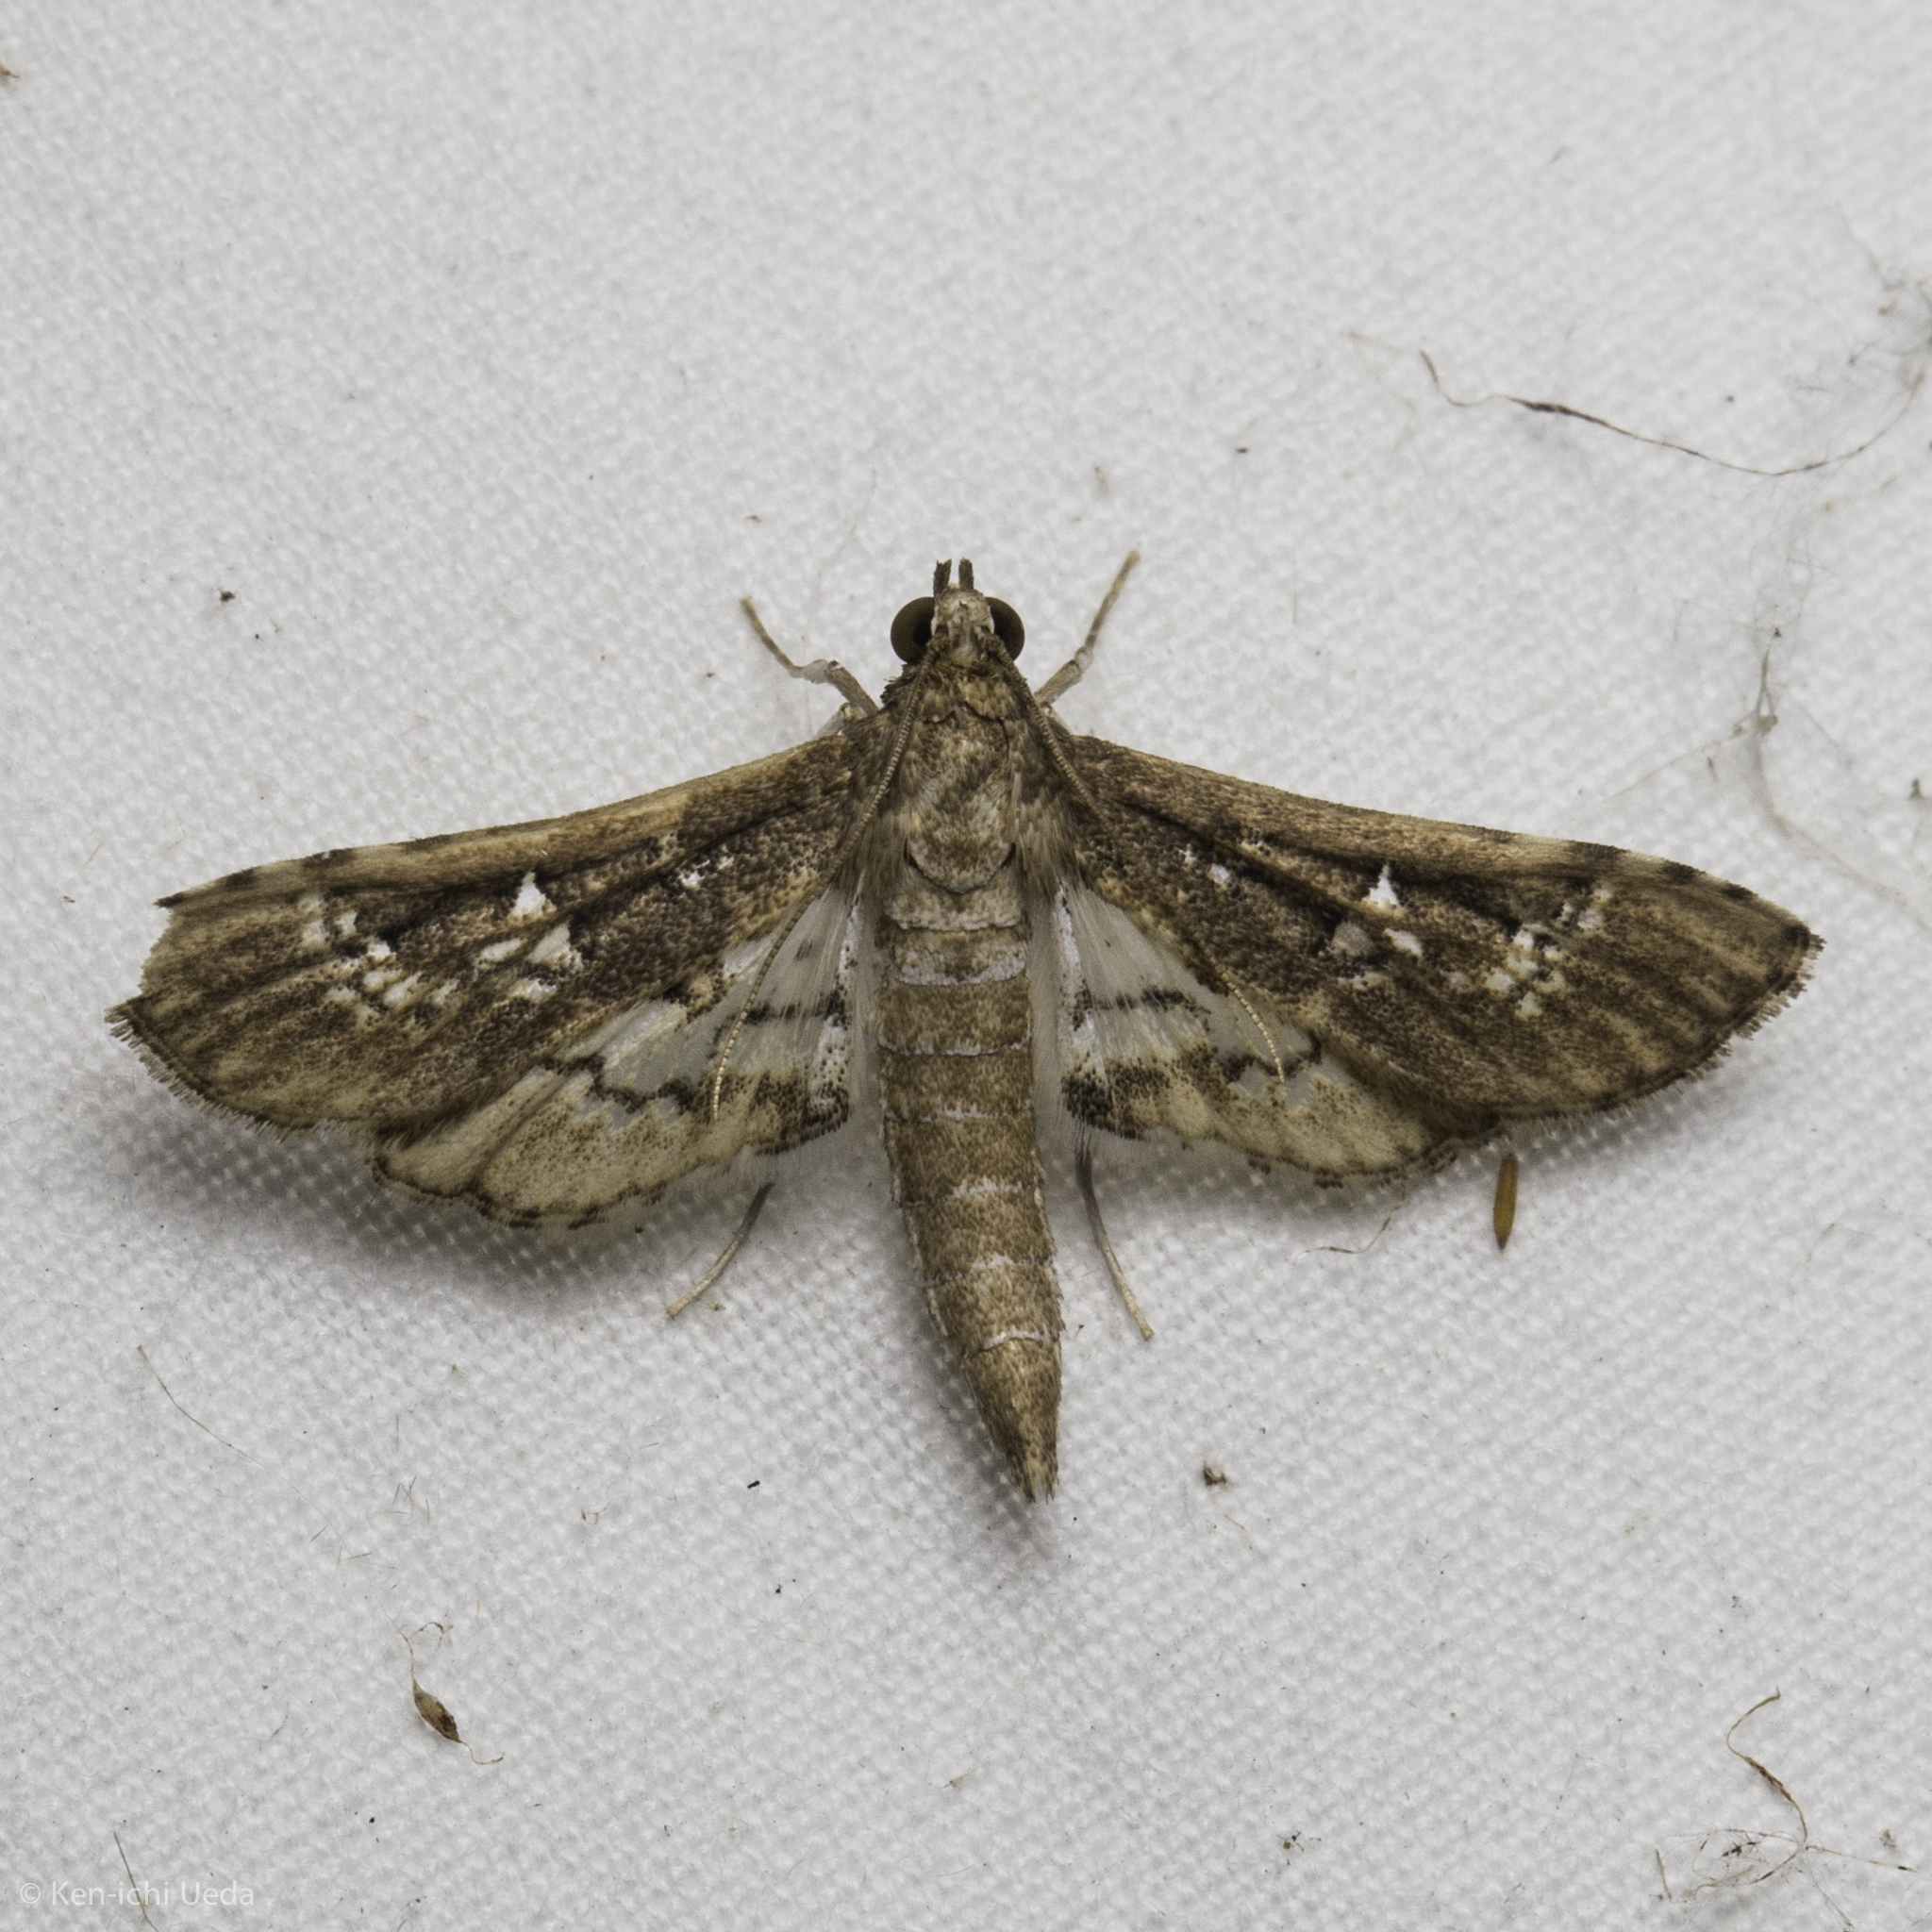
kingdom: Animalia
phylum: Arthropoda
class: Insecta
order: Lepidoptera
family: Crambidae
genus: Syllepte
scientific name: Syllepte Crocidocnemis pellucidalis
